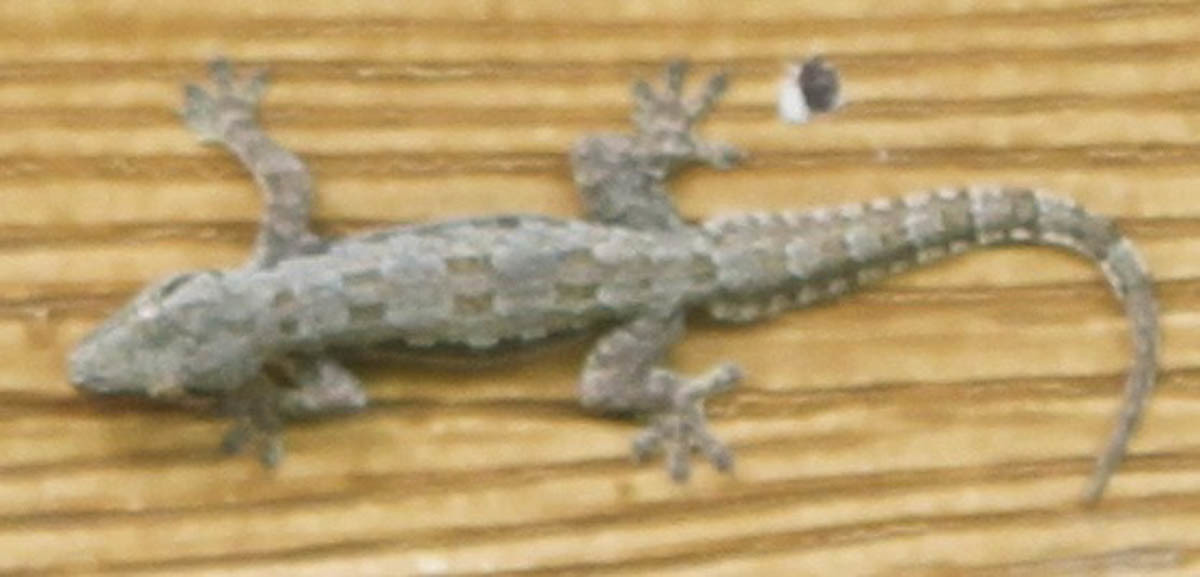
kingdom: Animalia
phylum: Chordata
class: Squamata
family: Gekkonidae
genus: Hemidactylus
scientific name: Hemidactylus platyurus
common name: Flat-tailed house gecko
